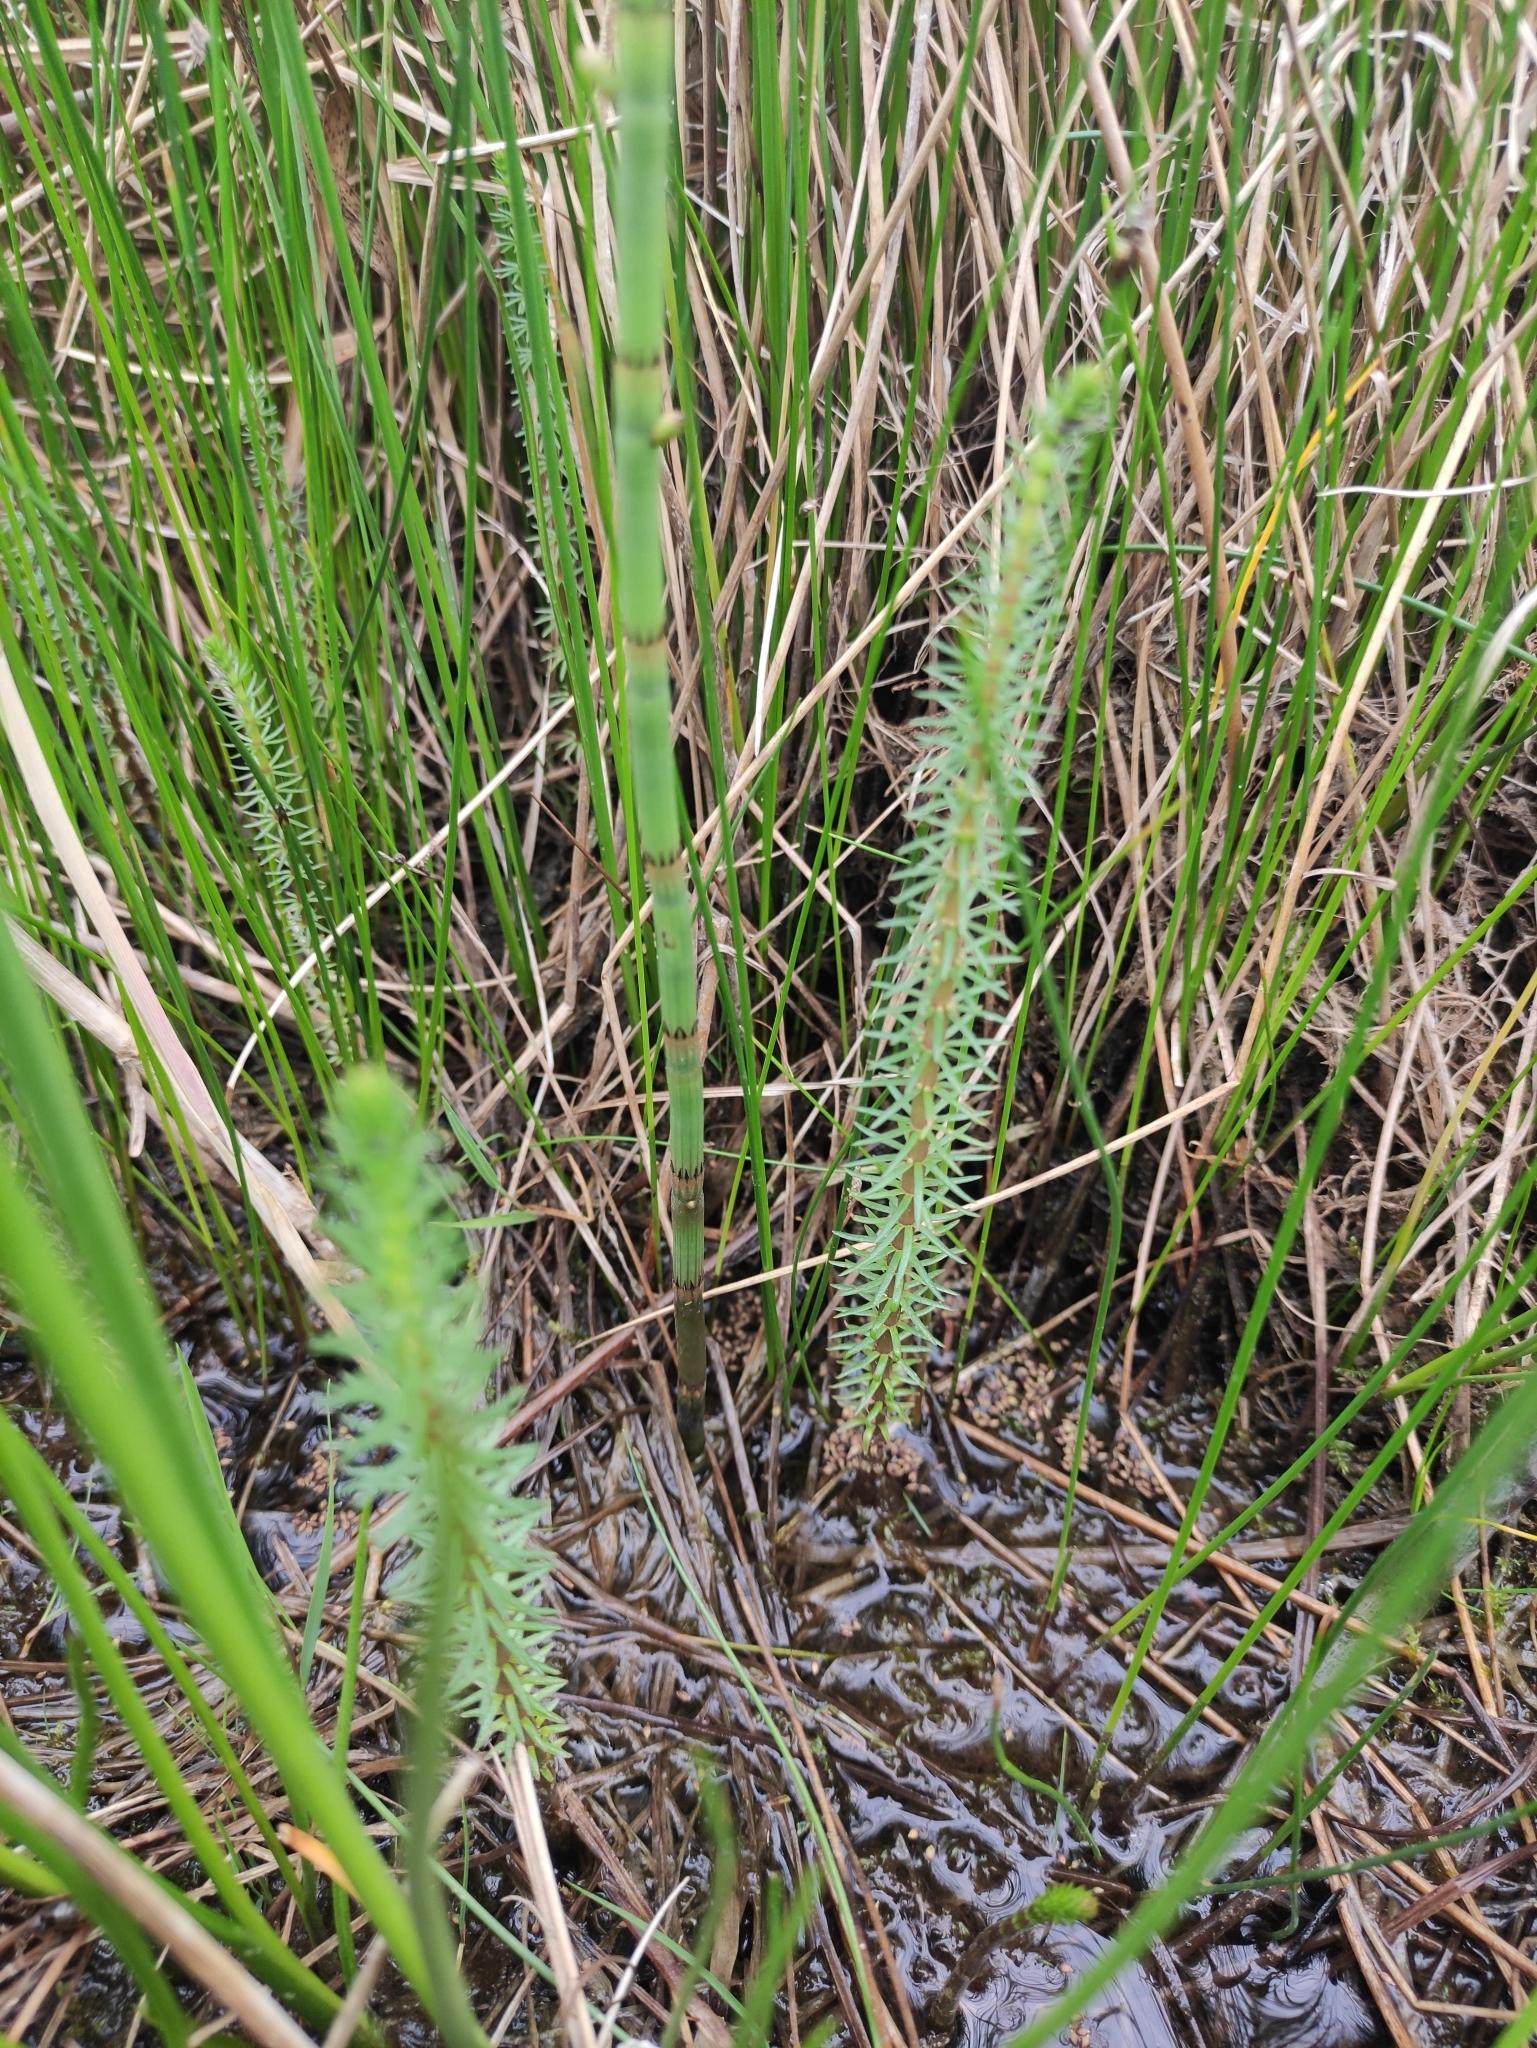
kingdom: Plantae
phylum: Tracheophyta
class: Magnoliopsida
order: Lamiales
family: Plantaginaceae
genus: Hippuris
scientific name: Hippuris vulgaris
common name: Mare's-tail
